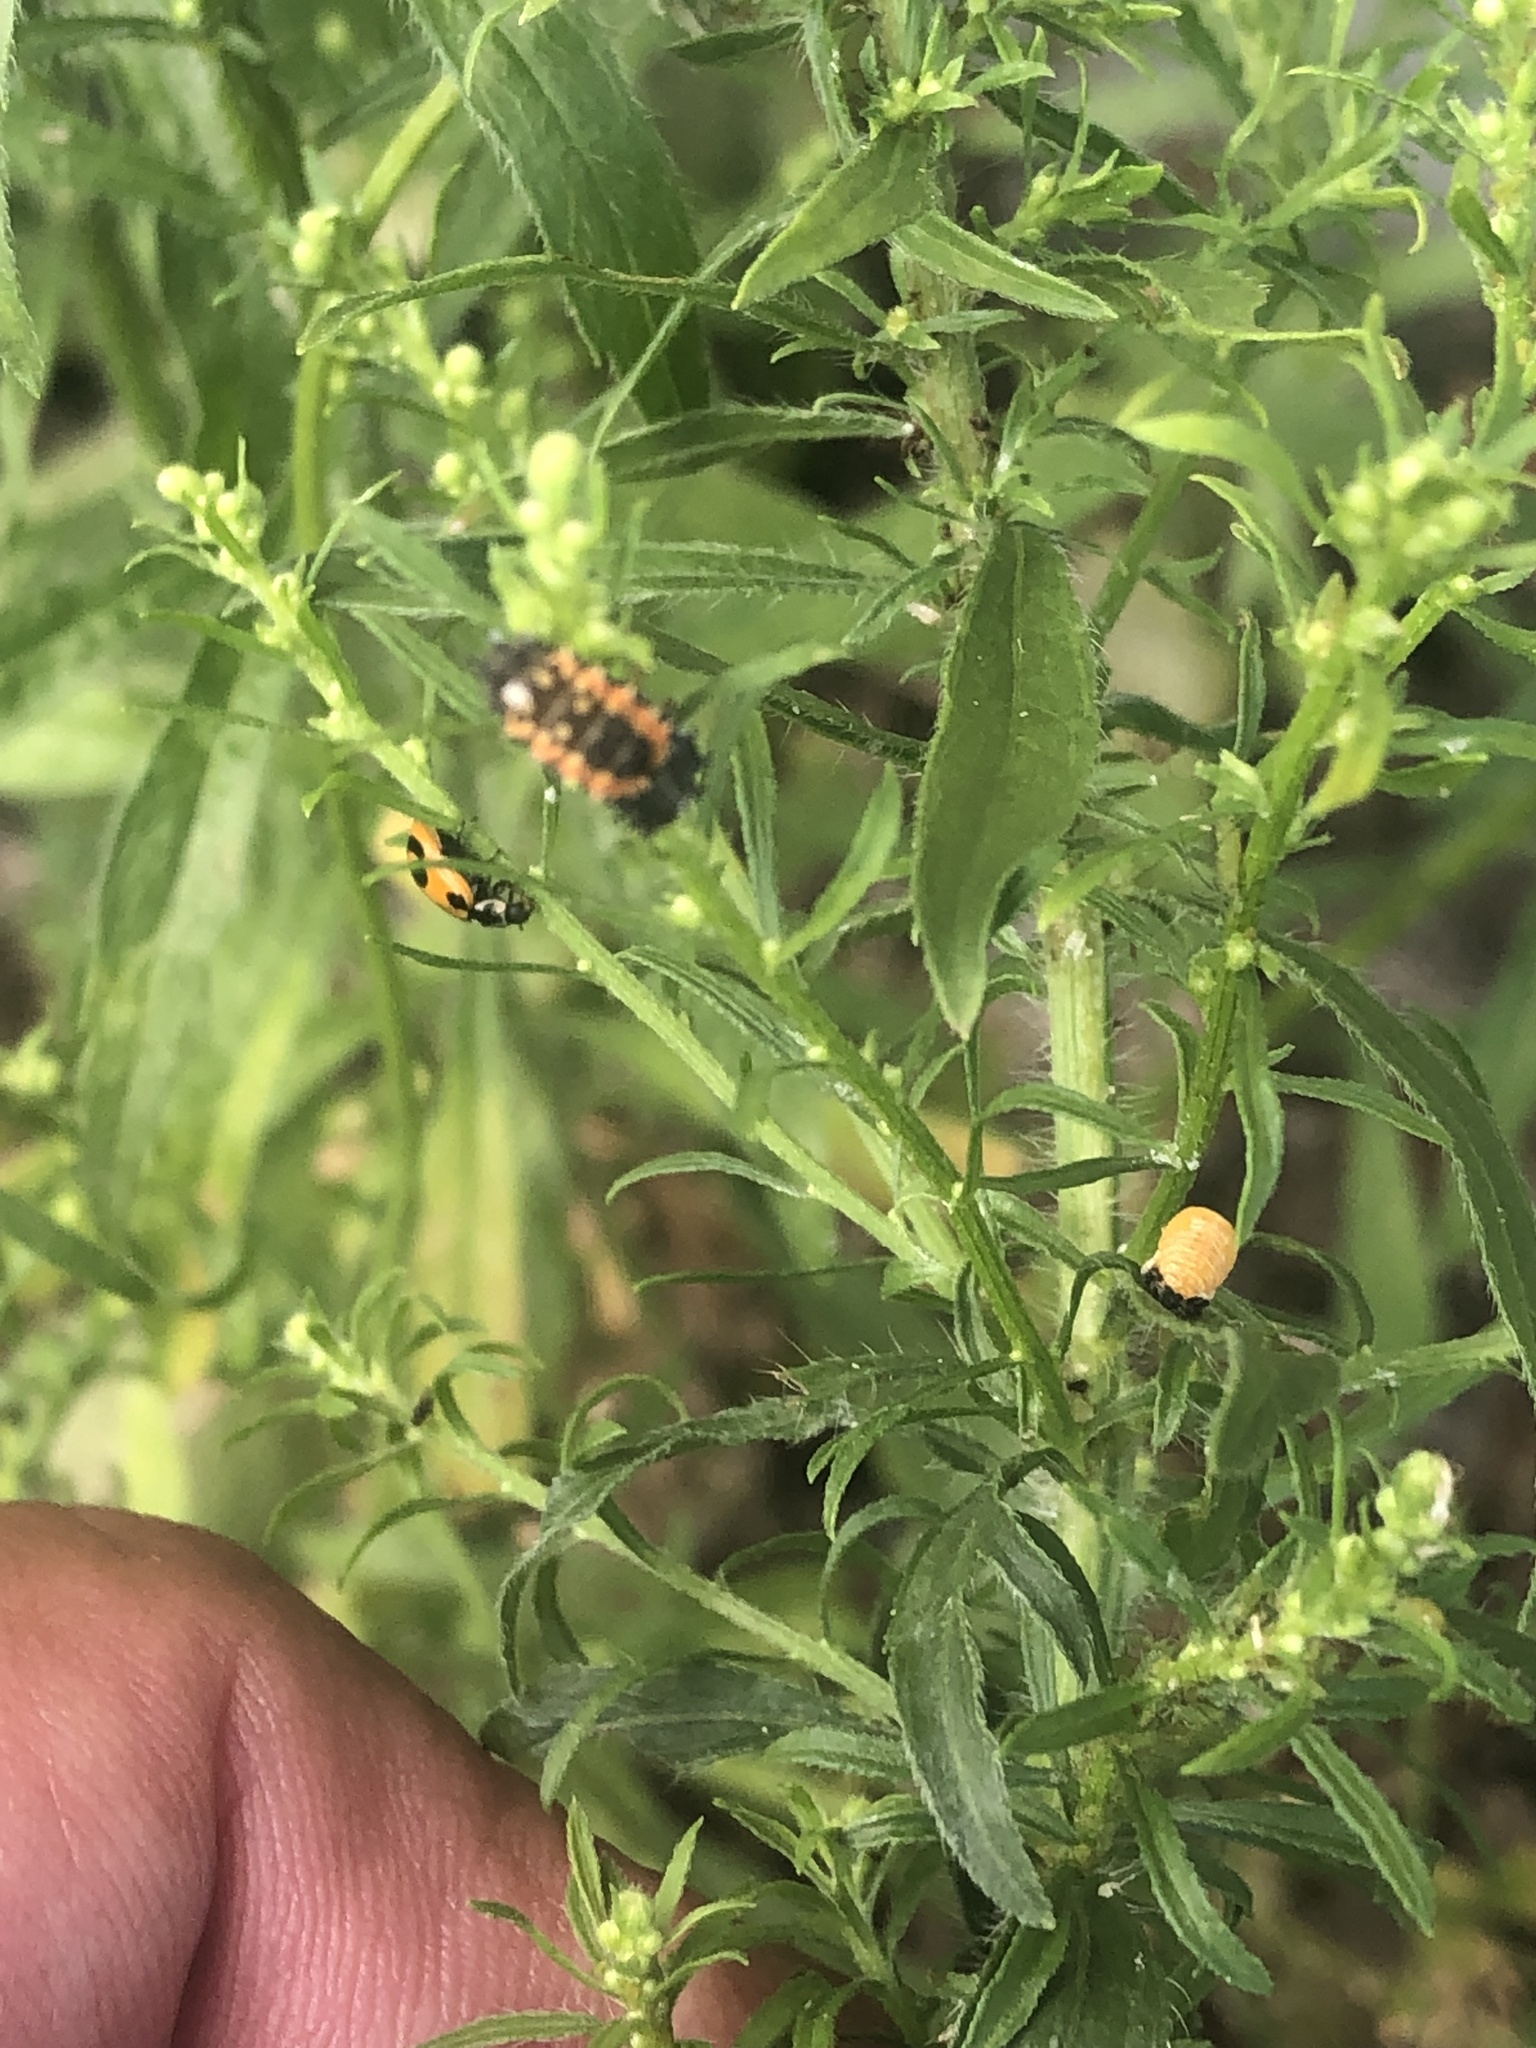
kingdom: Animalia
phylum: Arthropoda
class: Insecta
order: Coleoptera
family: Coccinellidae
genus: Harmonia
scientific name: Harmonia axyridis
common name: Harlequin ladybird
